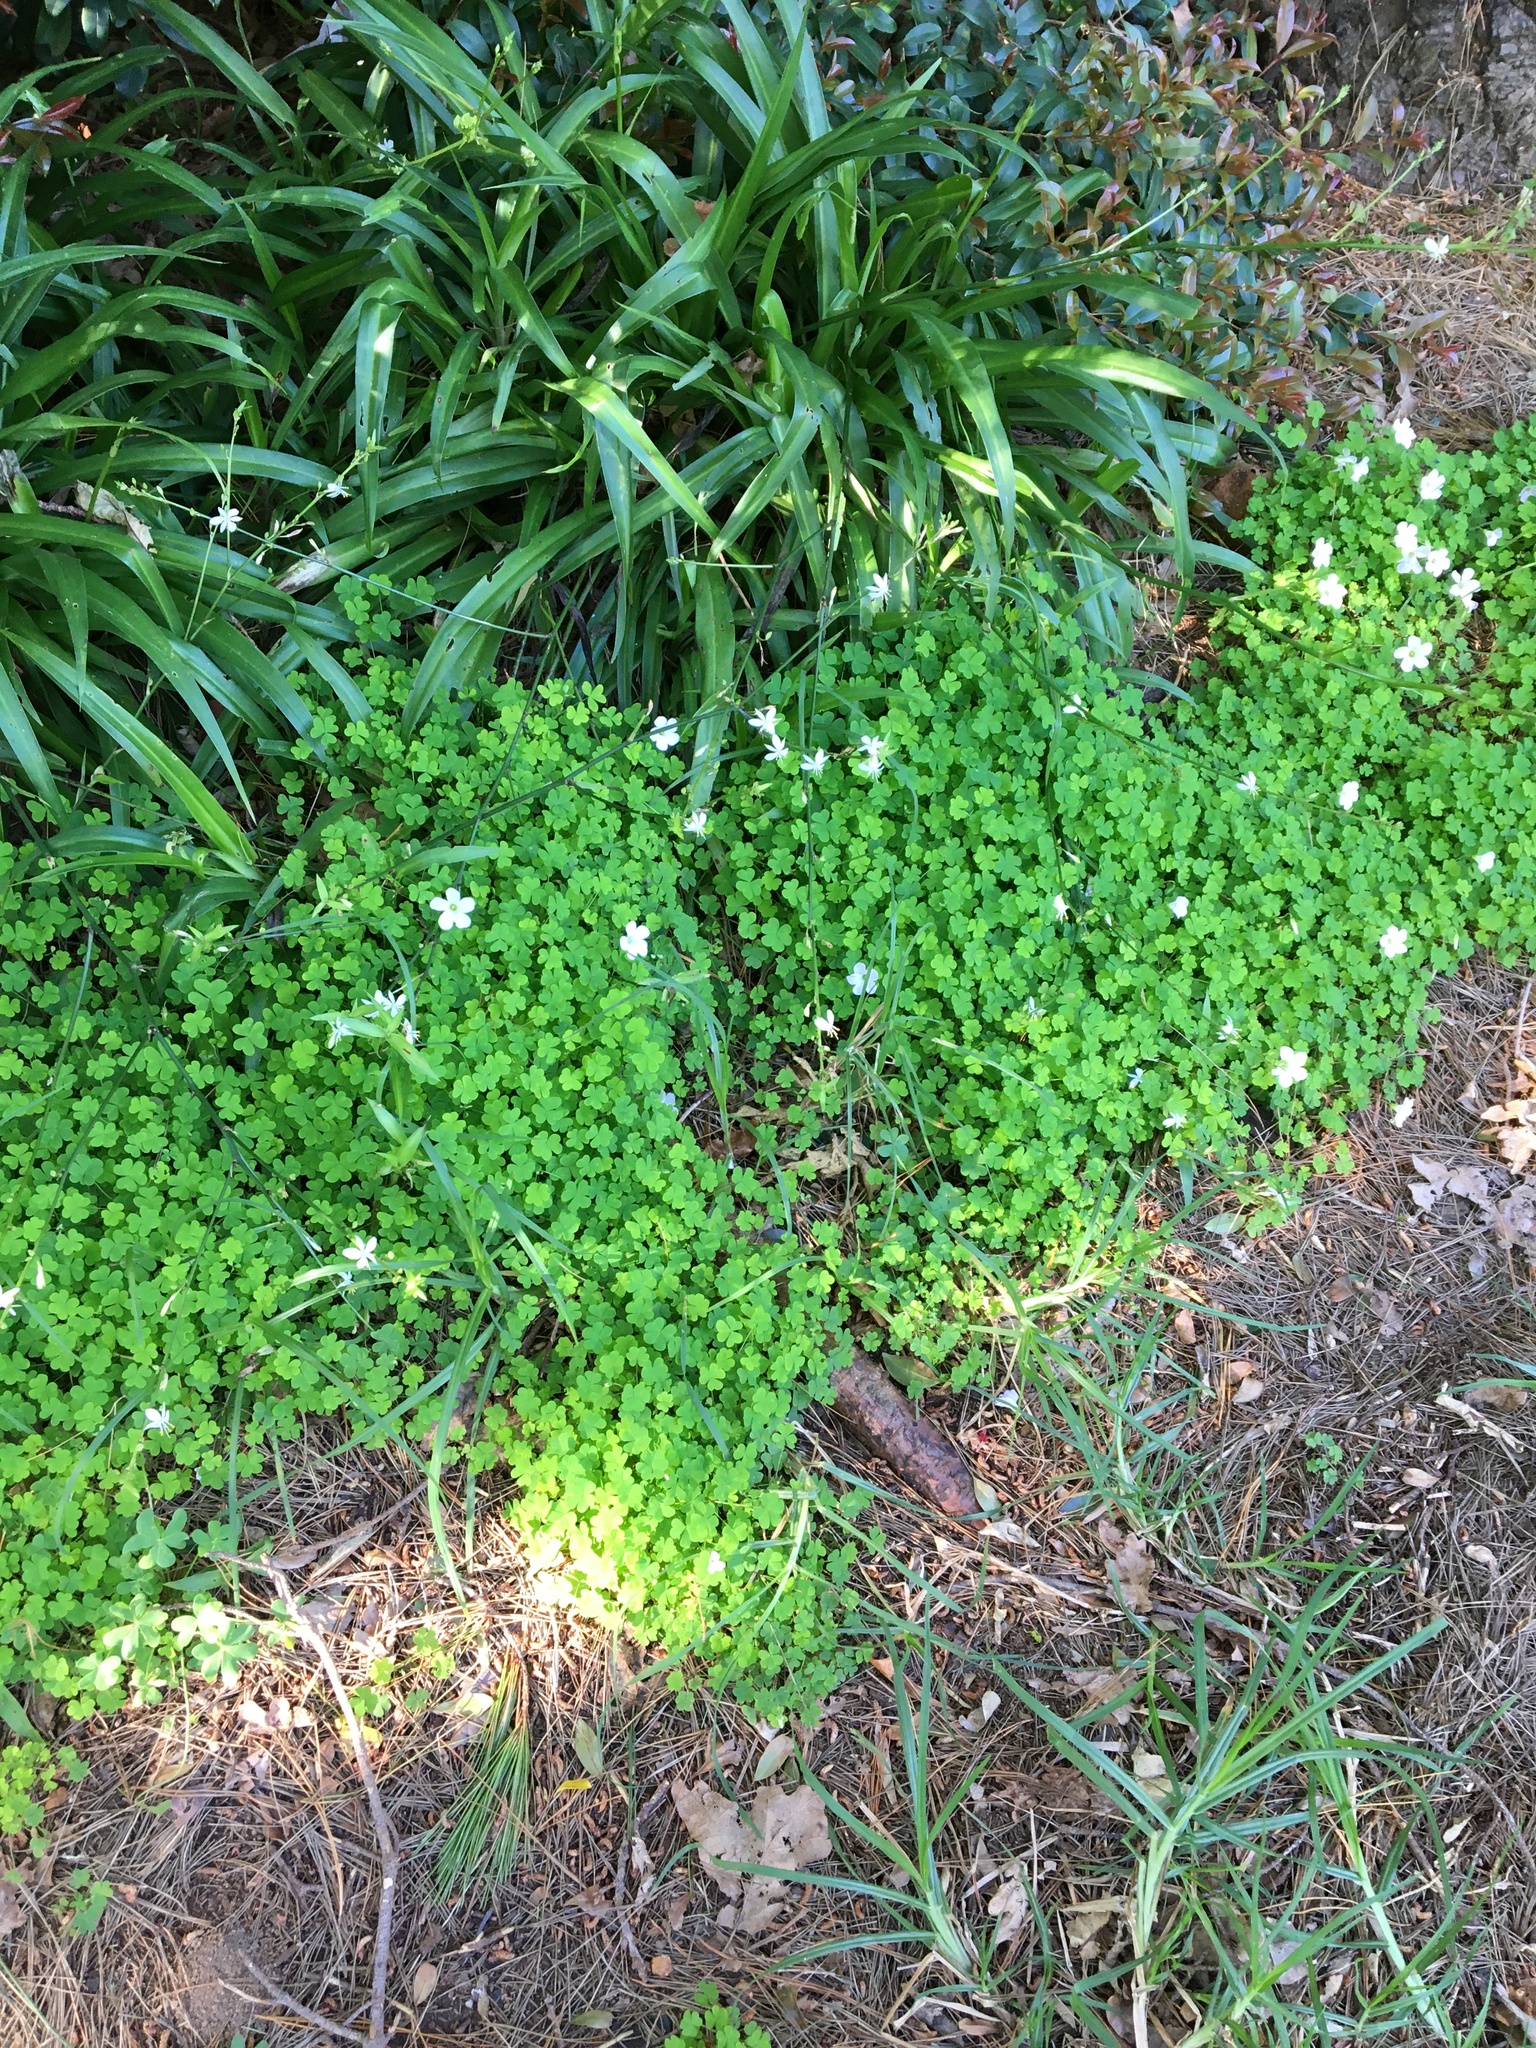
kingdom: Plantae
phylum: Tracheophyta
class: Magnoliopsida
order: Oxalidales
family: Oxalidaceae
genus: Oxalis
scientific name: Oxalis incarnata
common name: Pale pink-sorrel
